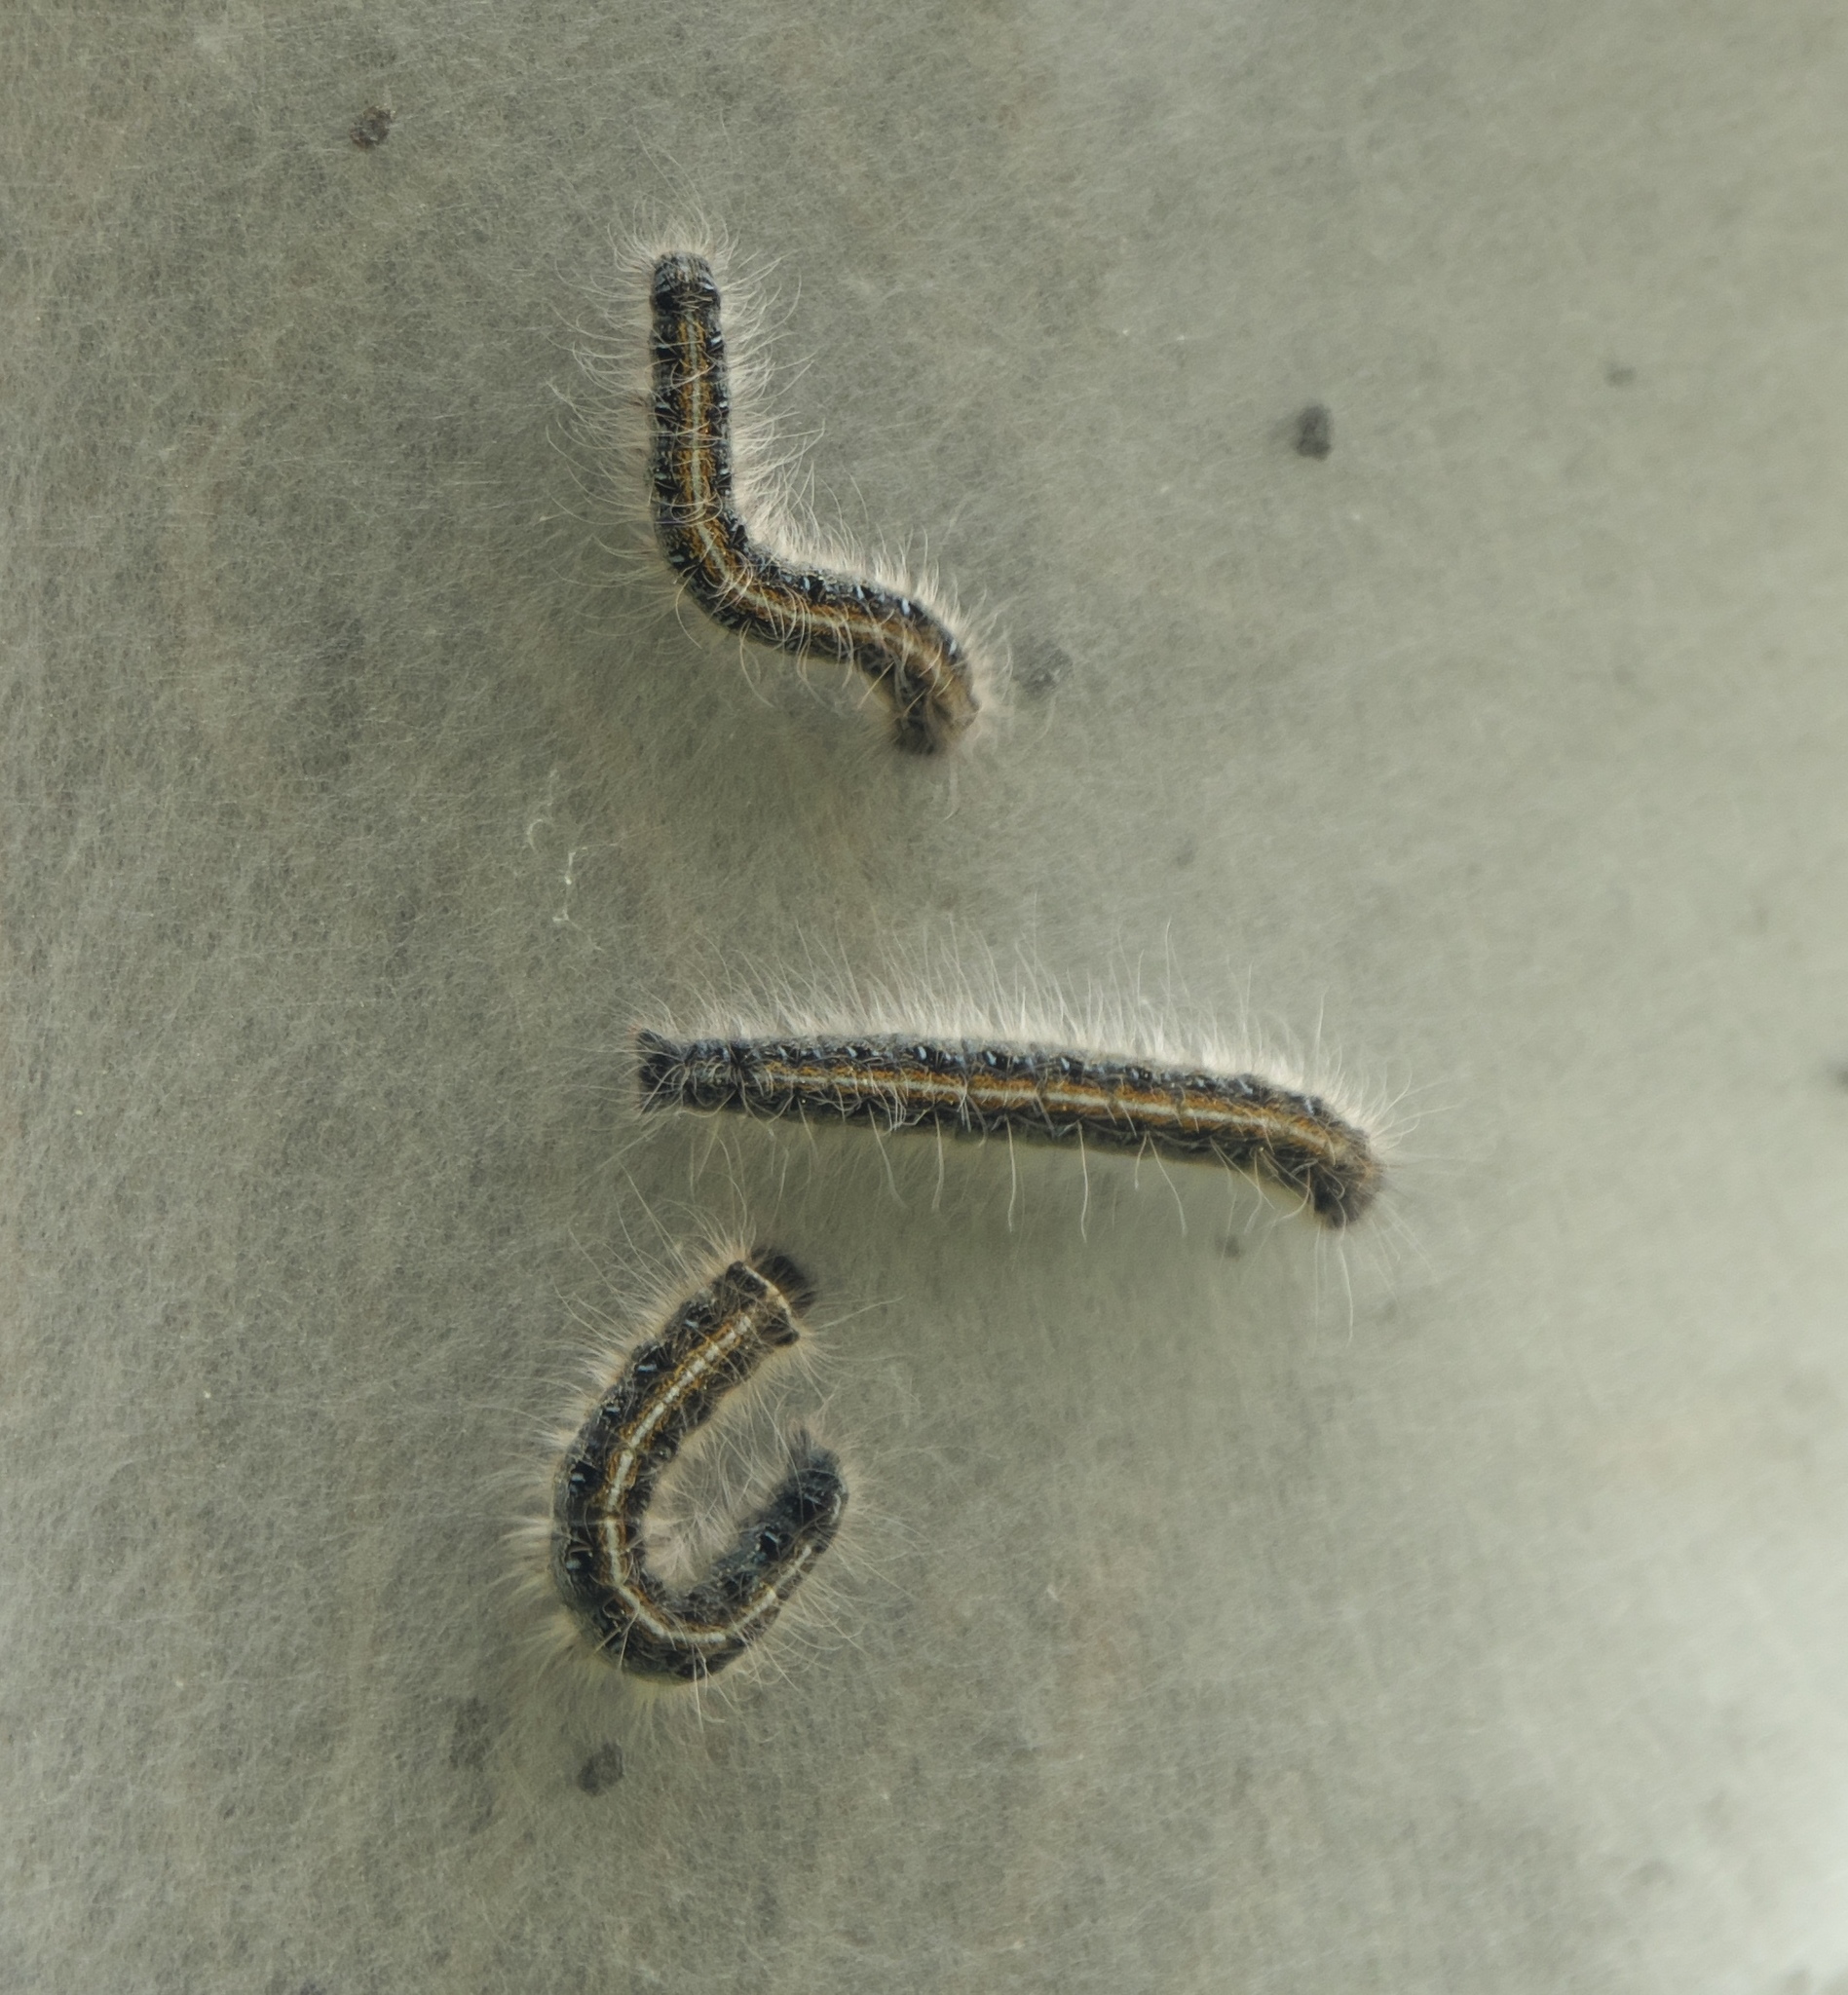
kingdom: Animalia
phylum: Arthropoda
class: Insecta
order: Lepidoptera
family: Lasiocampidae
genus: Malacosoma
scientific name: Malacosoma americana
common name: Eastern tent caterpillar moth
